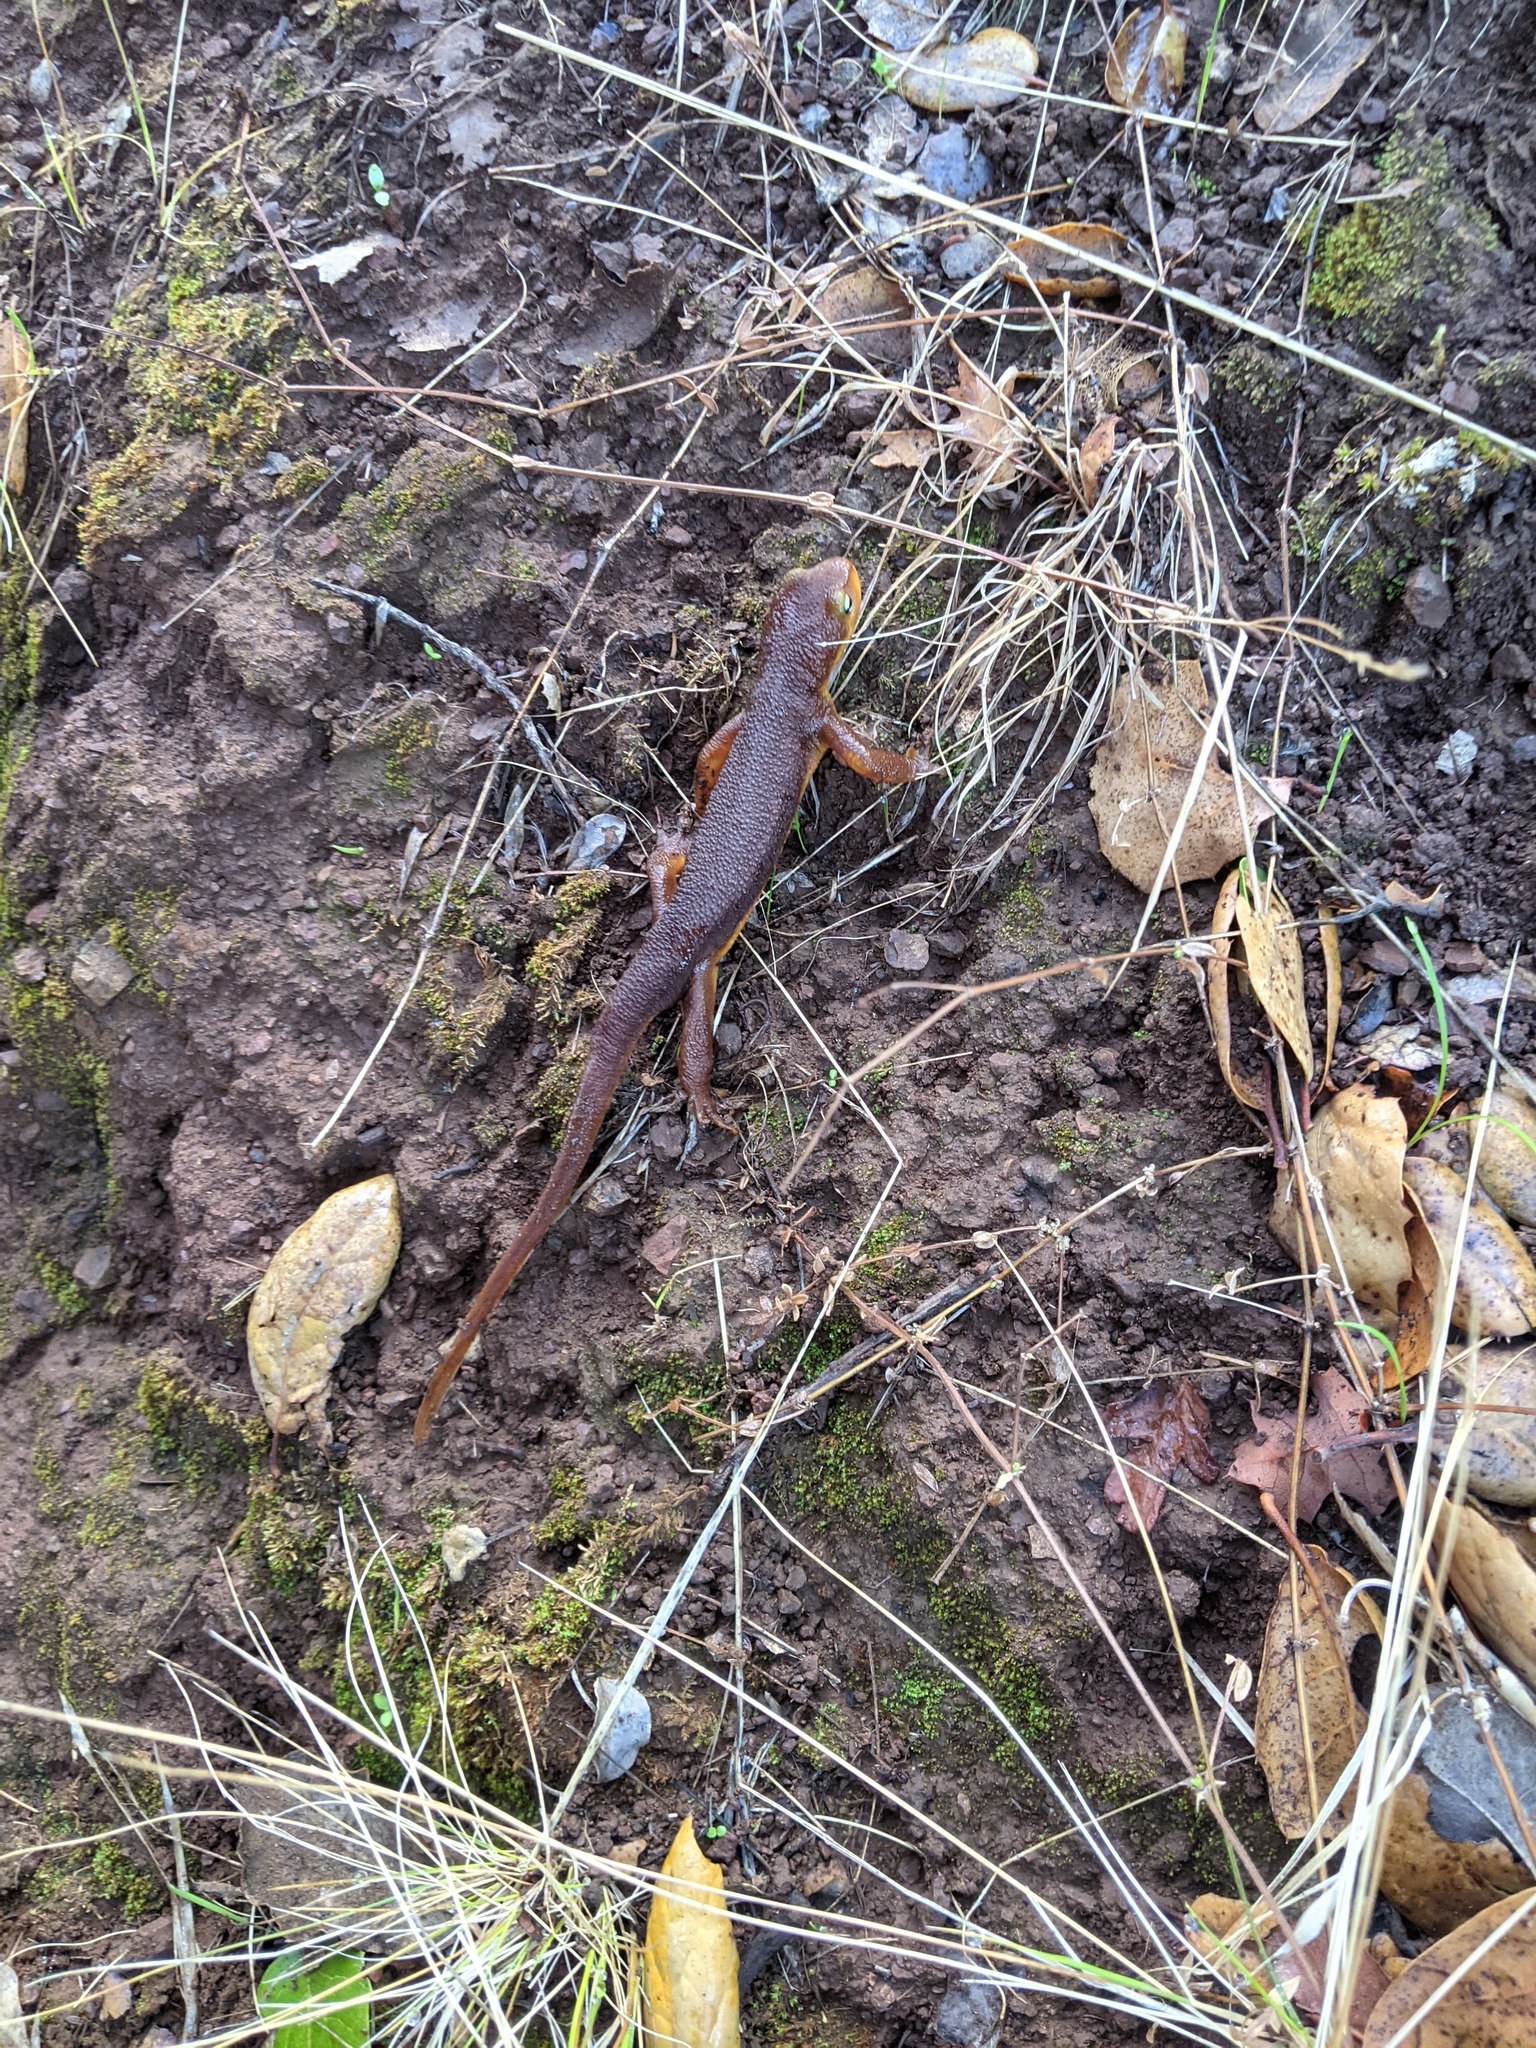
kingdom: Animalia
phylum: Chordata
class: Amphibia
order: Caudata
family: Salamandridae
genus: Taricha
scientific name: Taricha torosa
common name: California newt
